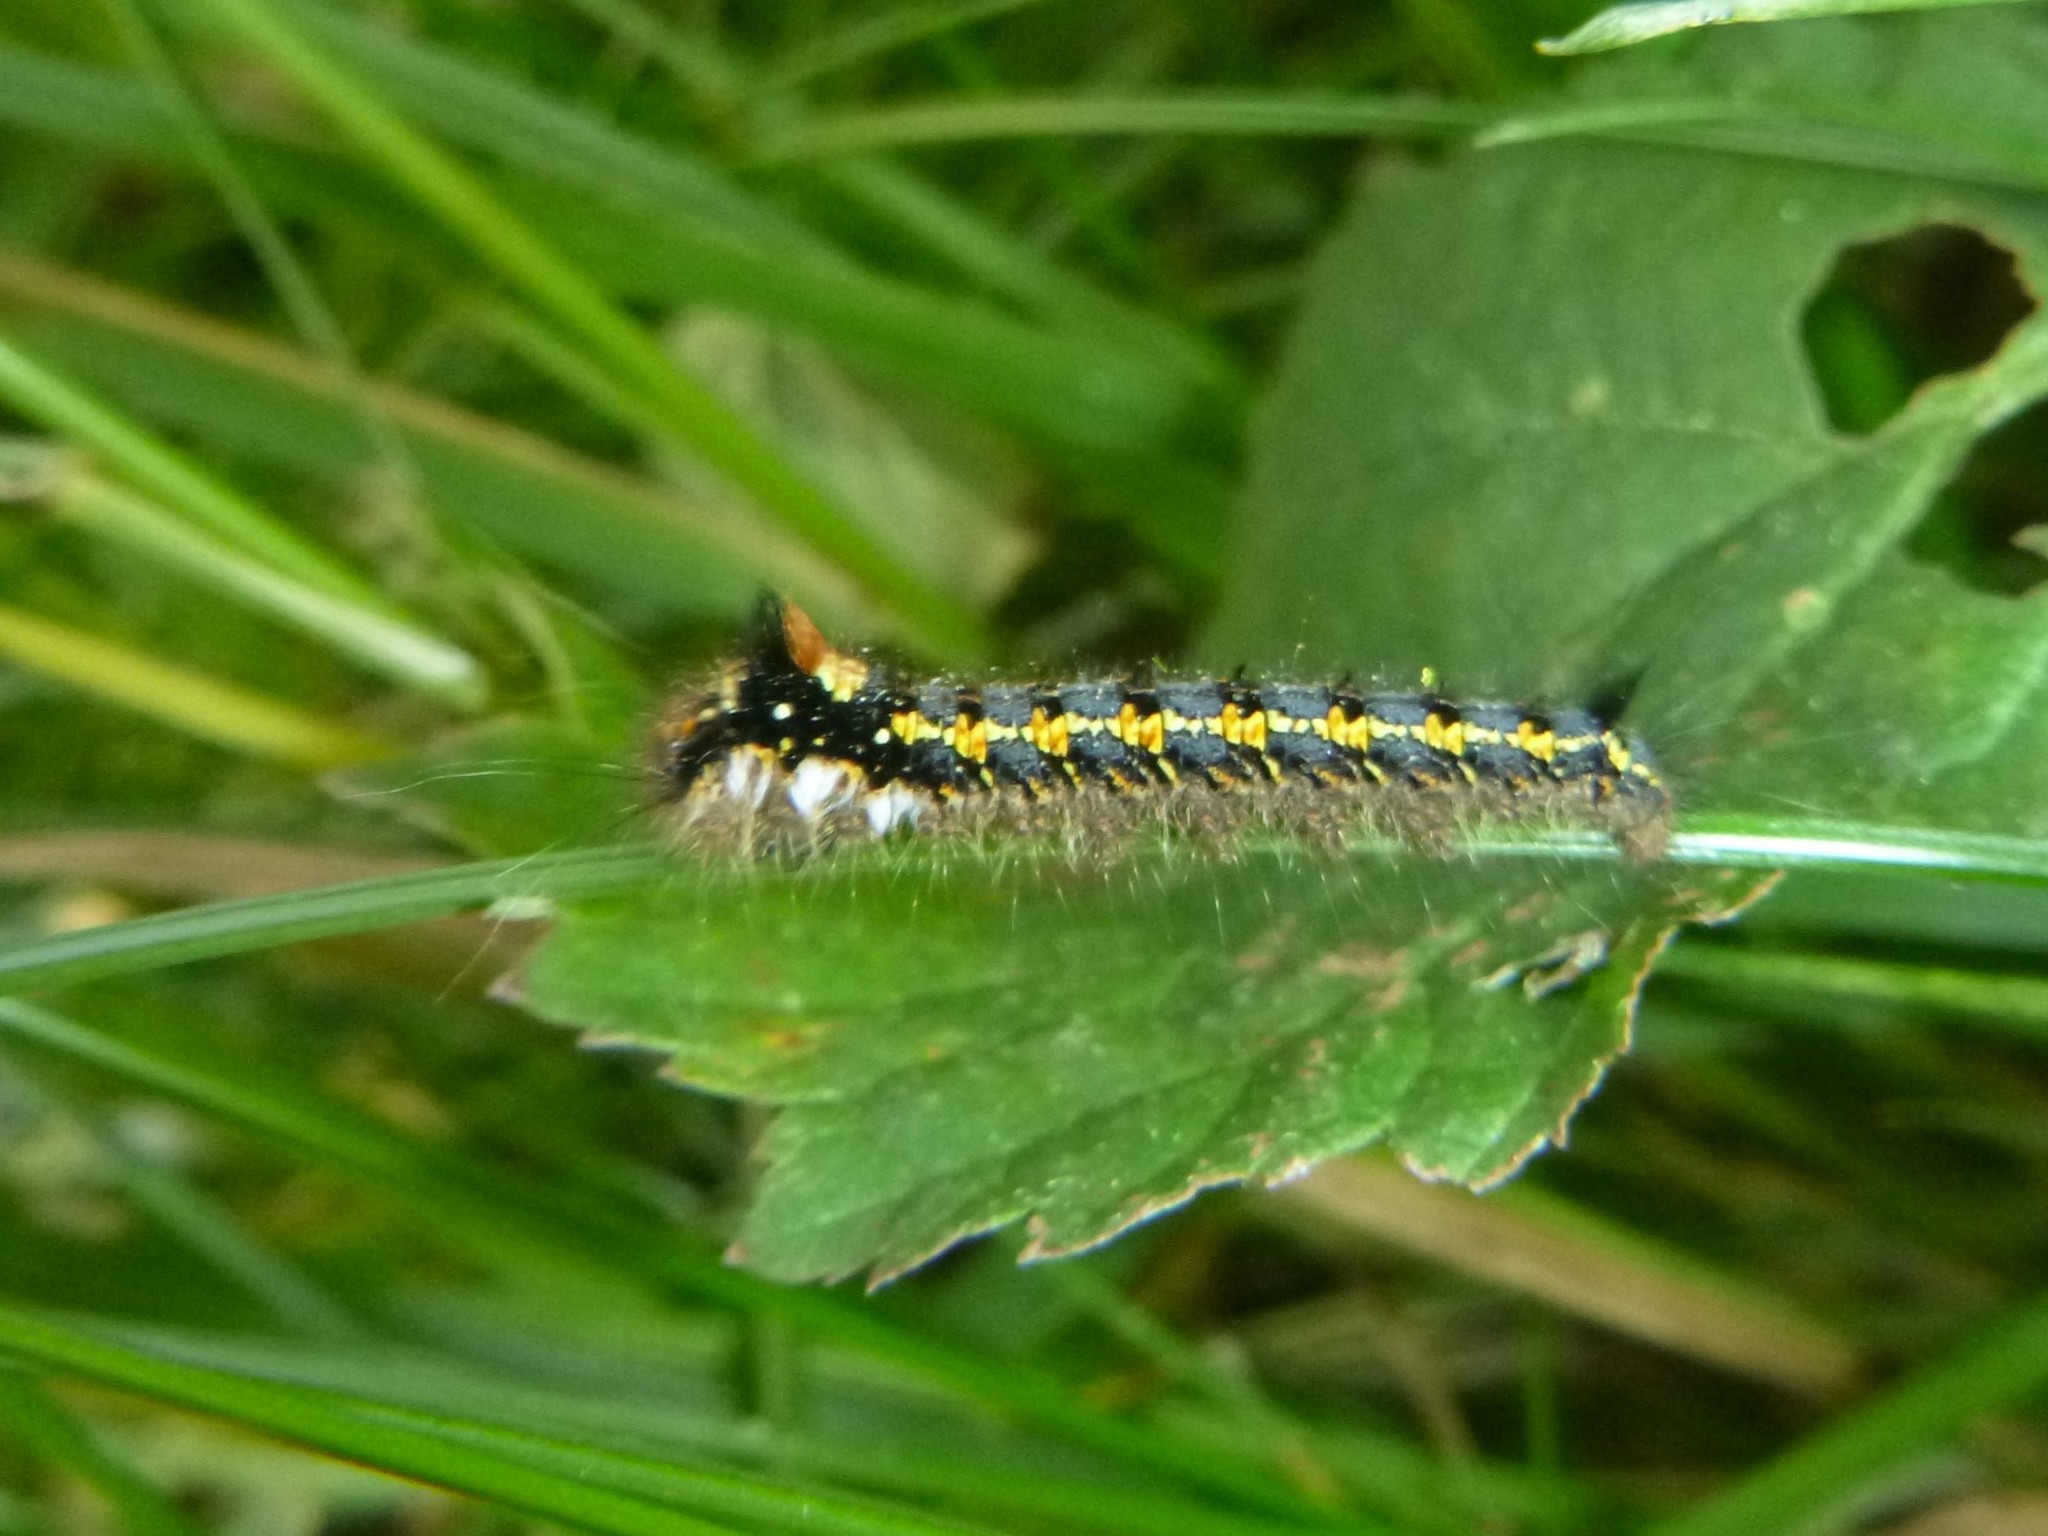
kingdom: Animalia
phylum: Arthropoda
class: Insecta
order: Lepidoptera
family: Lasiocampidae
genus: Euthrix
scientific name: Euthrix potatoria
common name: Drinker
